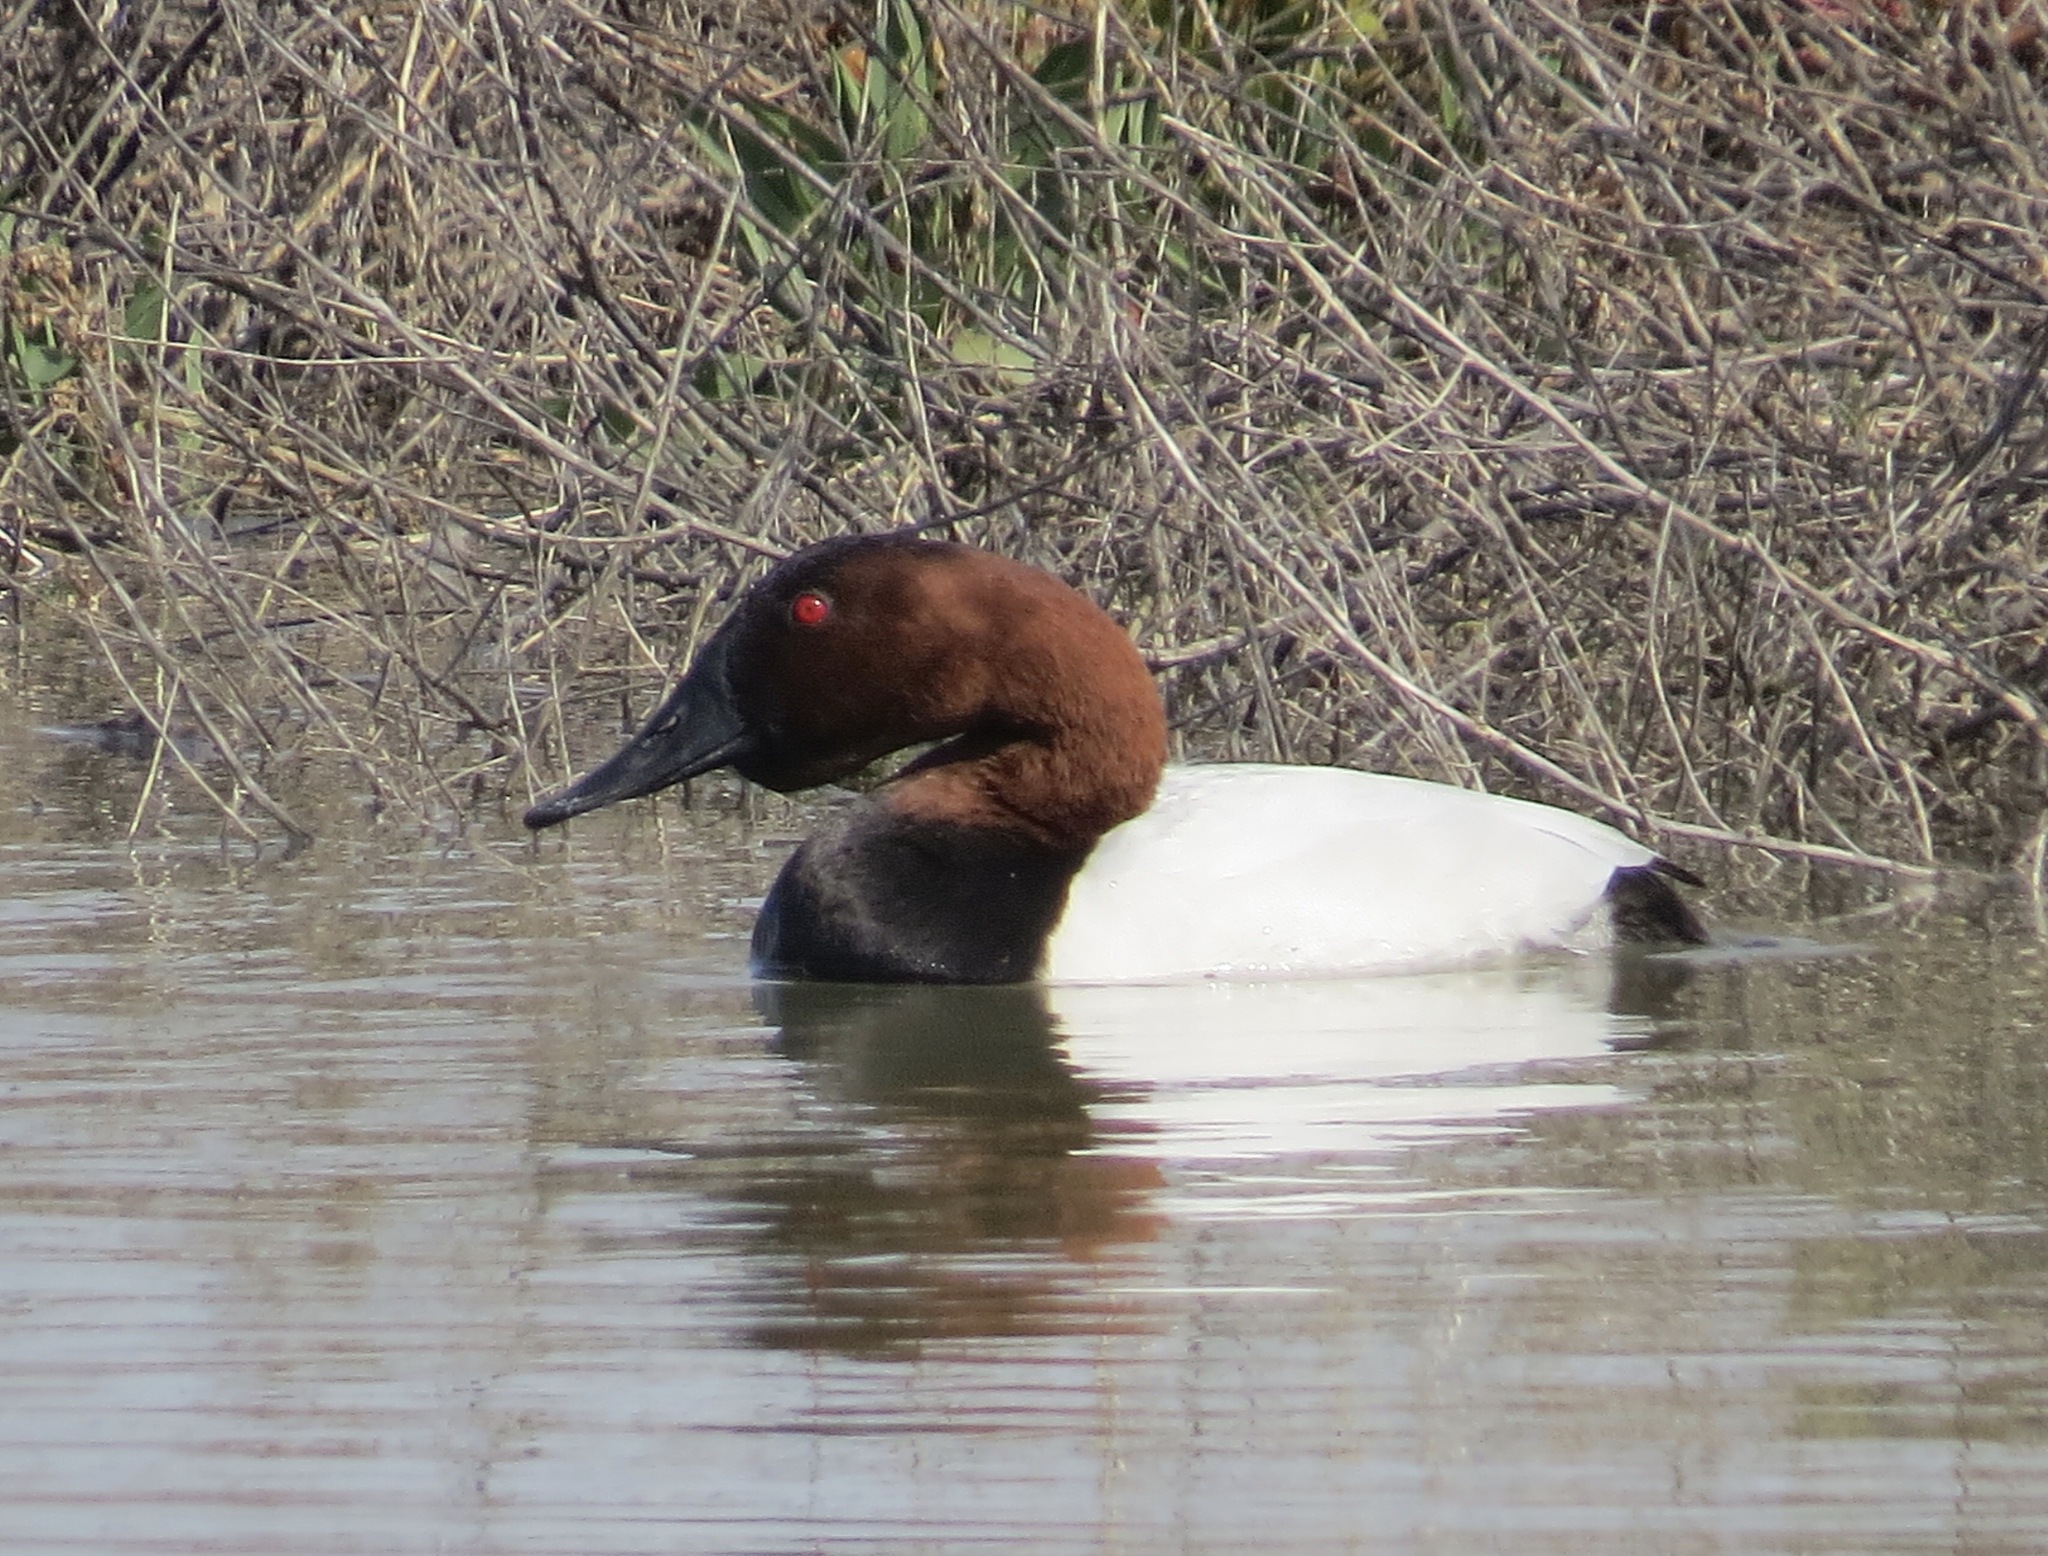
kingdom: Animalia
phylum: Chordata
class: Aves
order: Anseriformes
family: Anatidae
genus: Aythya
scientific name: Aythya valisineria
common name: Canvasback
